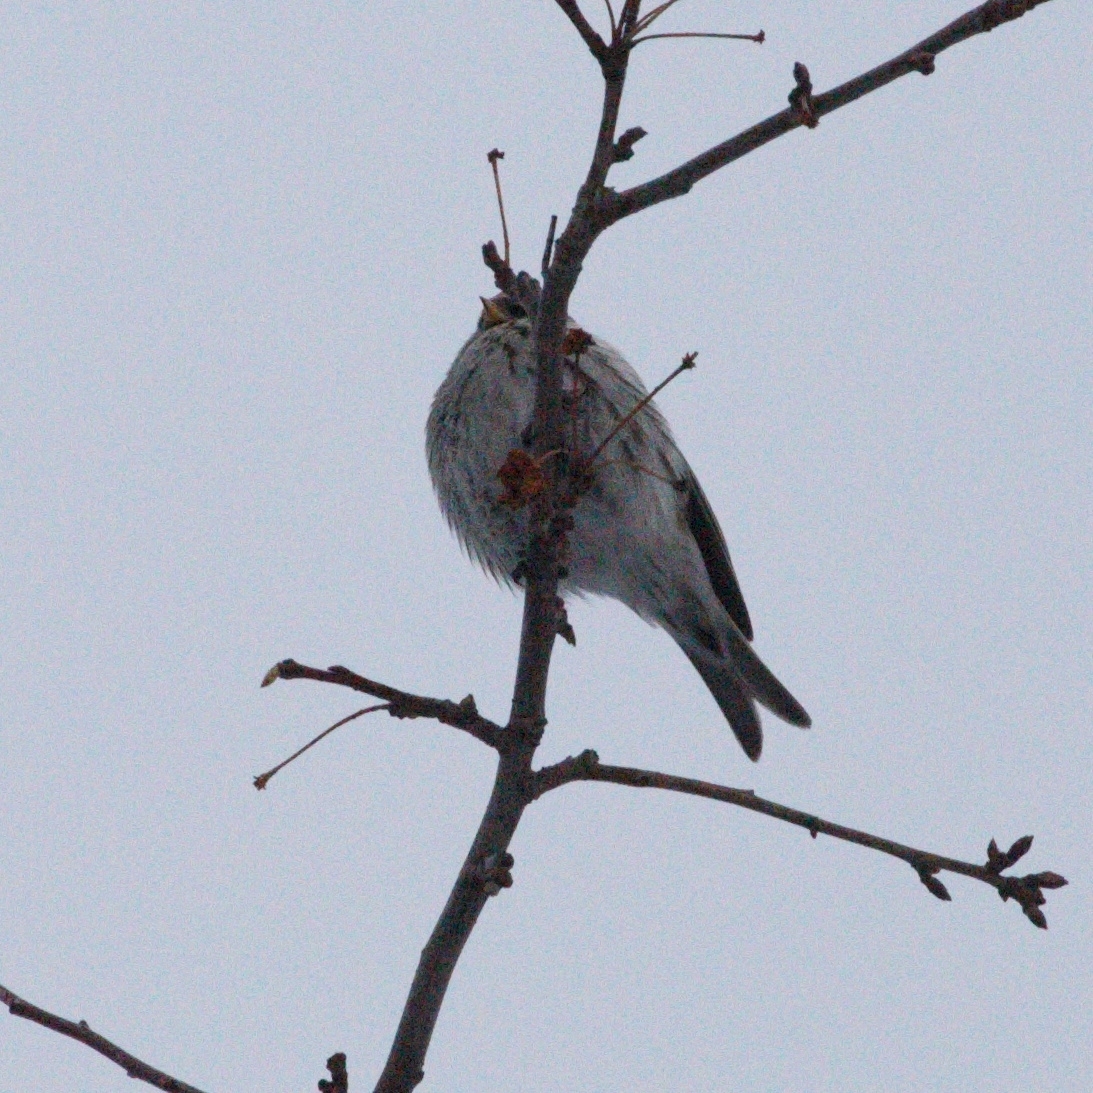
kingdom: Animalia
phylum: Chordata
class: Aves
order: Passeriformes
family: Fringillidae
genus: Acanthis
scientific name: Acanthis flammea
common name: Common redpoll
